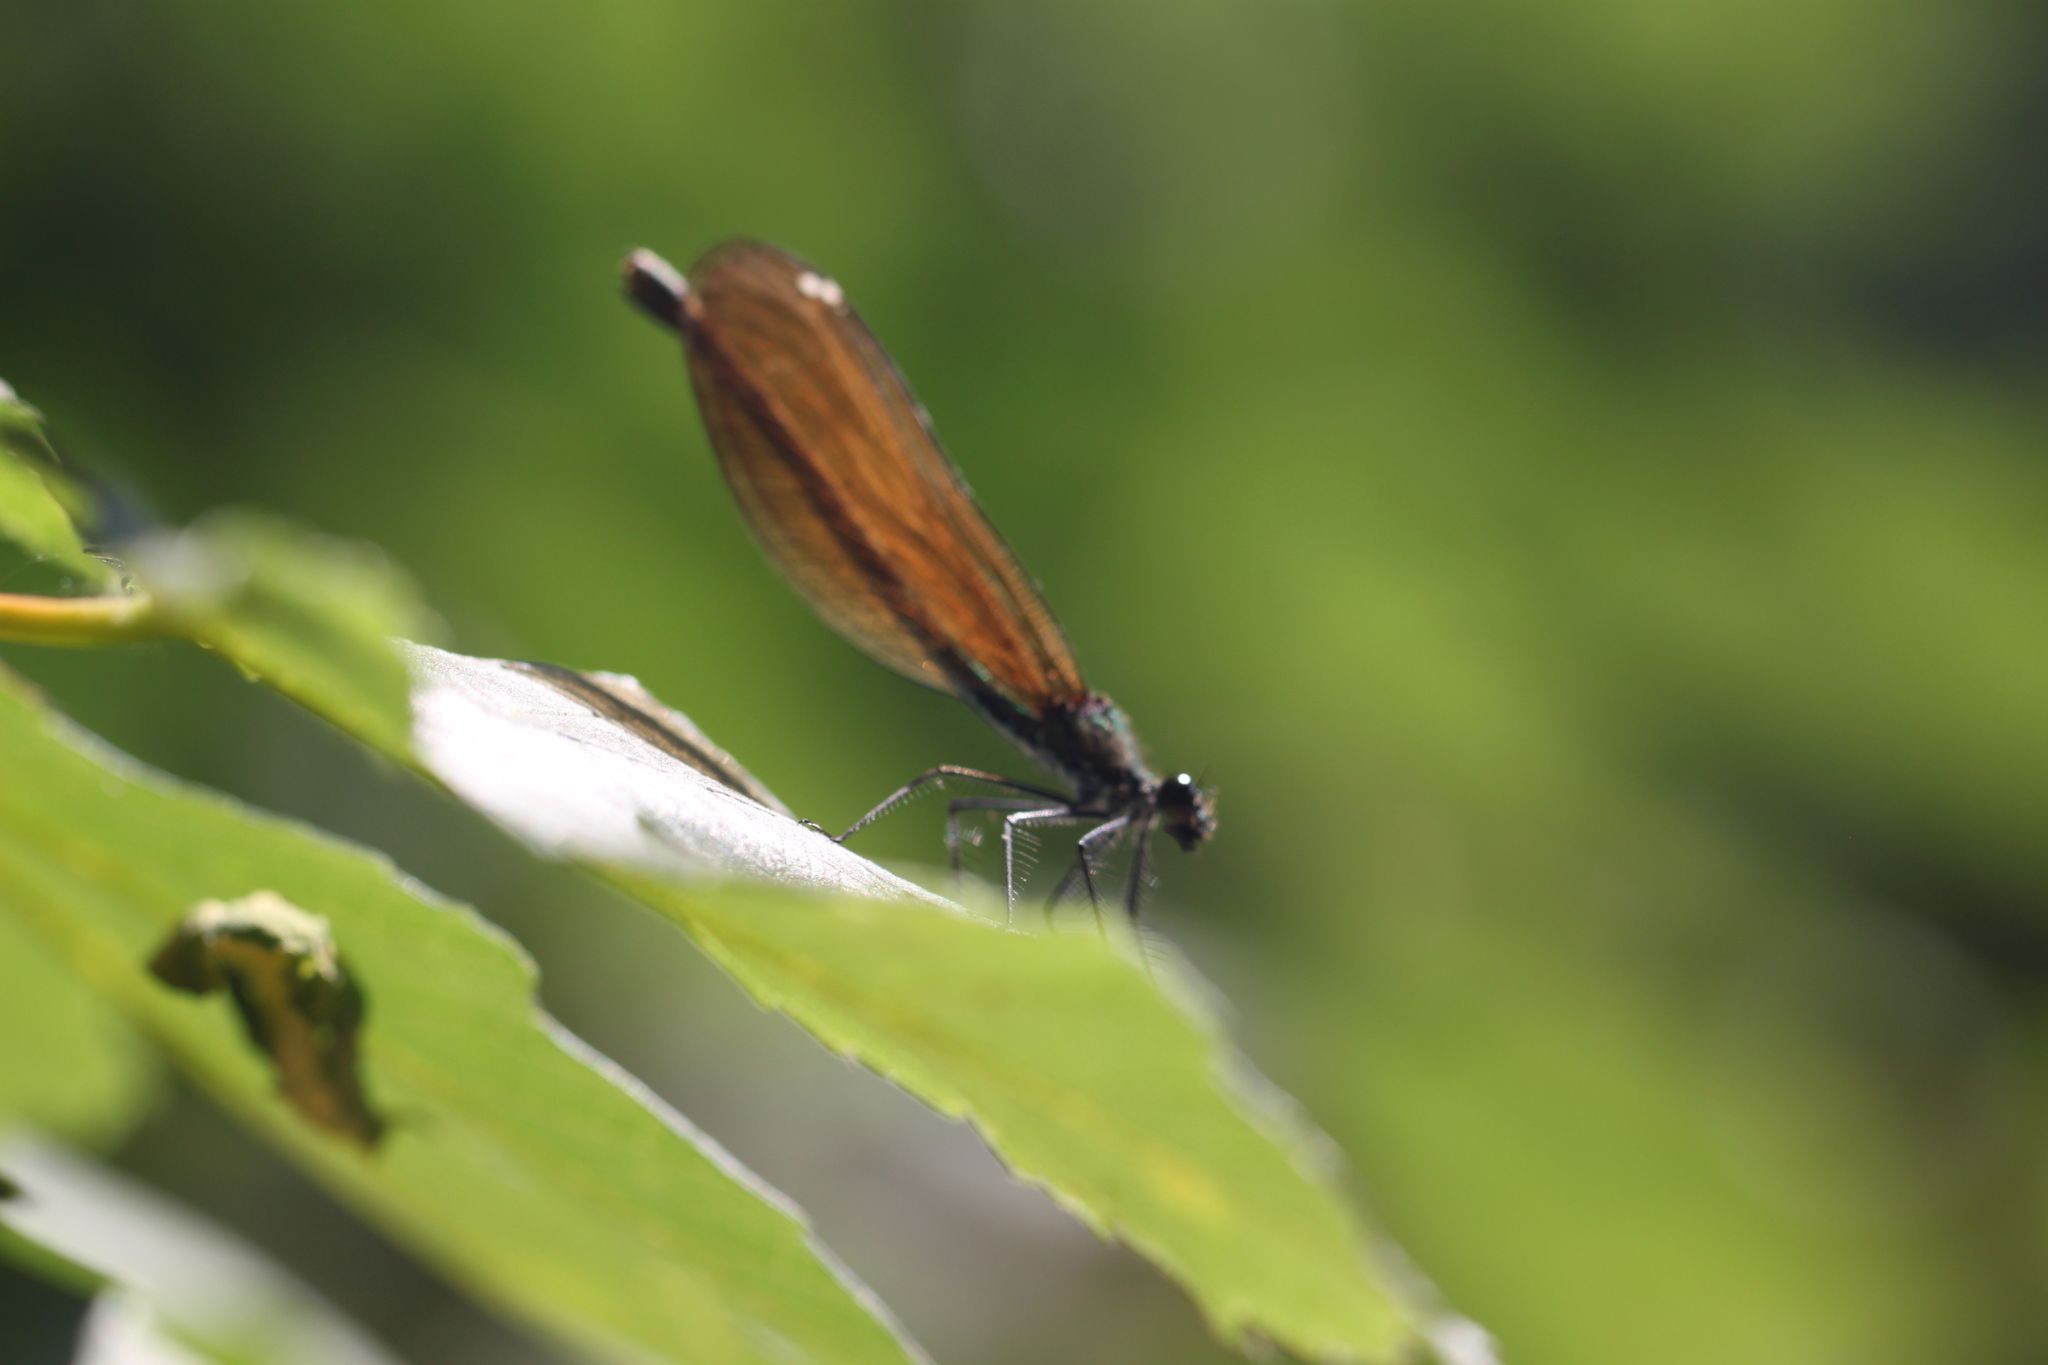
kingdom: Animalia
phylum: Arthropoda
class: Insecta
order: Odonata
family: Calopterygidae
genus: Calopteryx
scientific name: Calopteryx virgo
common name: Beautiful demoiselle
